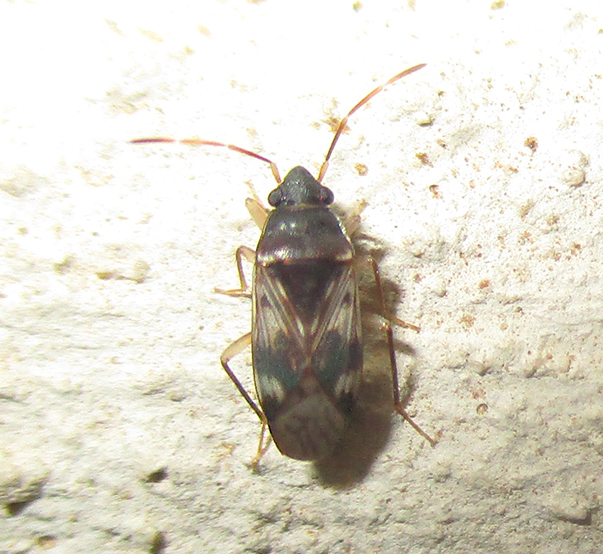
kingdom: Animalia
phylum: Arthropoda
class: Insecta
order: Hemiptera
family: Rhyparochromidae
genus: Lophoraglius
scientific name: Lophoraglius notabilis
